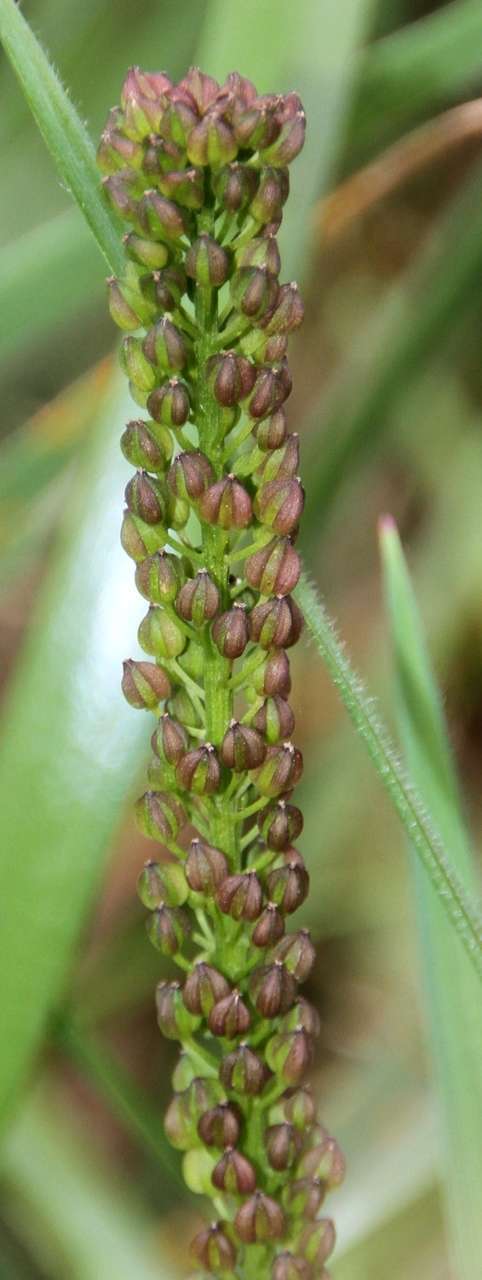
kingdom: Plantae
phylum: Tracheophyta
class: Liliopsida
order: Alismatales
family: Juncaginaceae
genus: Triglochin
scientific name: Triglochin striata
